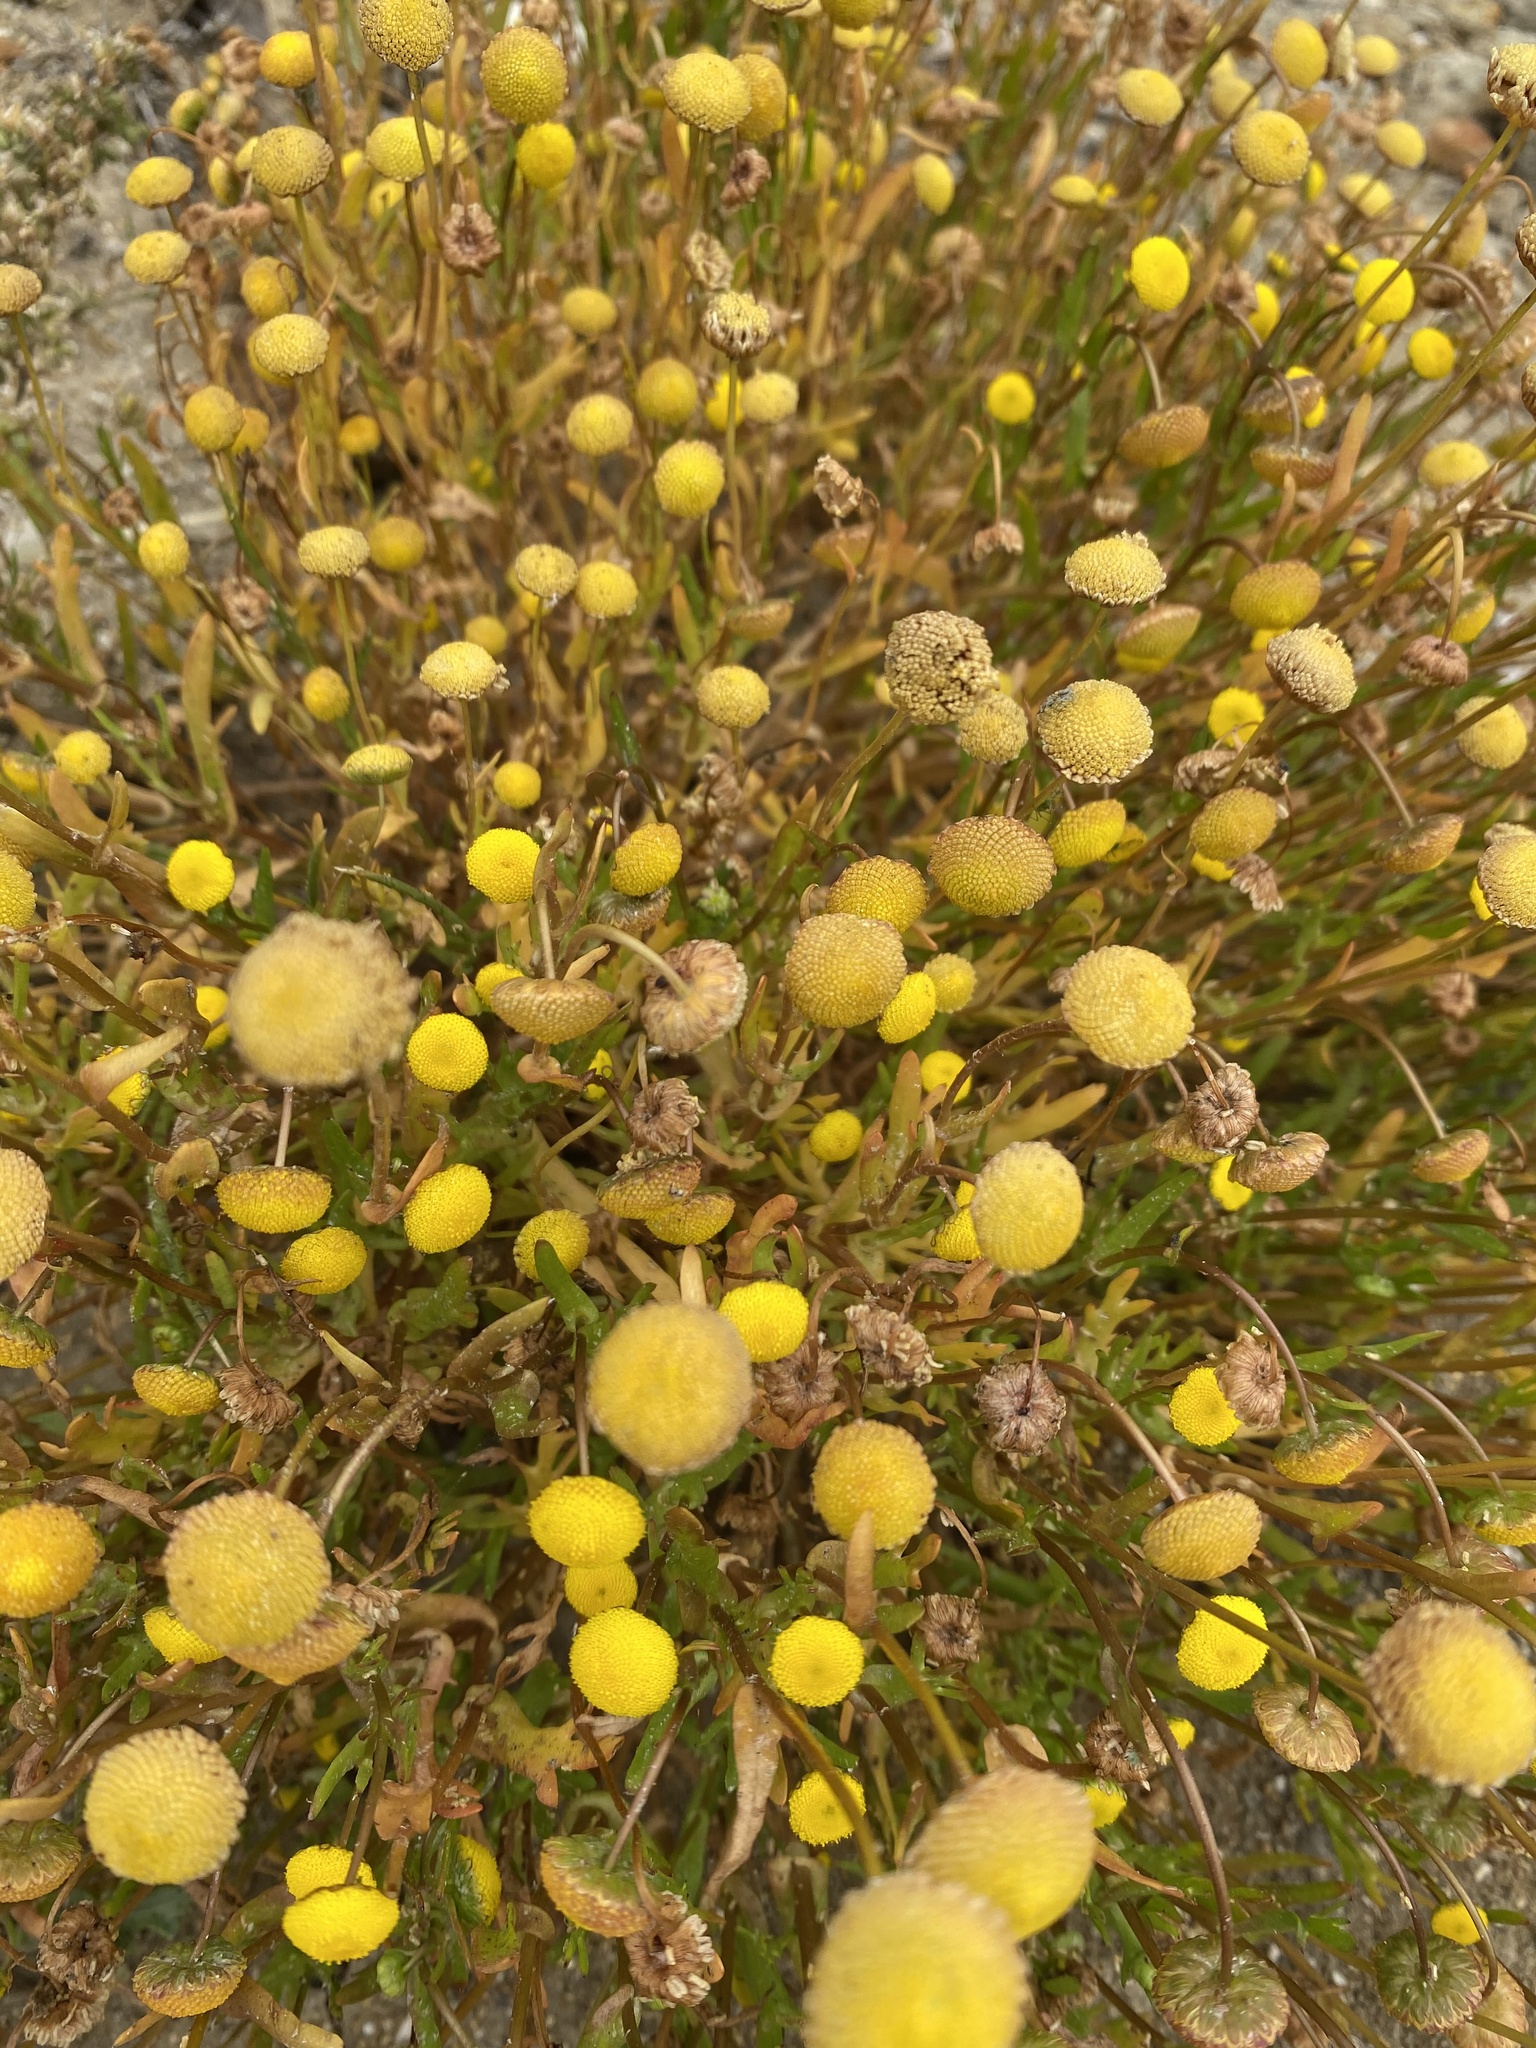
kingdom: Plantae
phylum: Tracheophyta
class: Magnoliopsida
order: Asterales
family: Asteraceae
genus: Cotula
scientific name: Cotula coronopifolia
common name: Buttonweed
